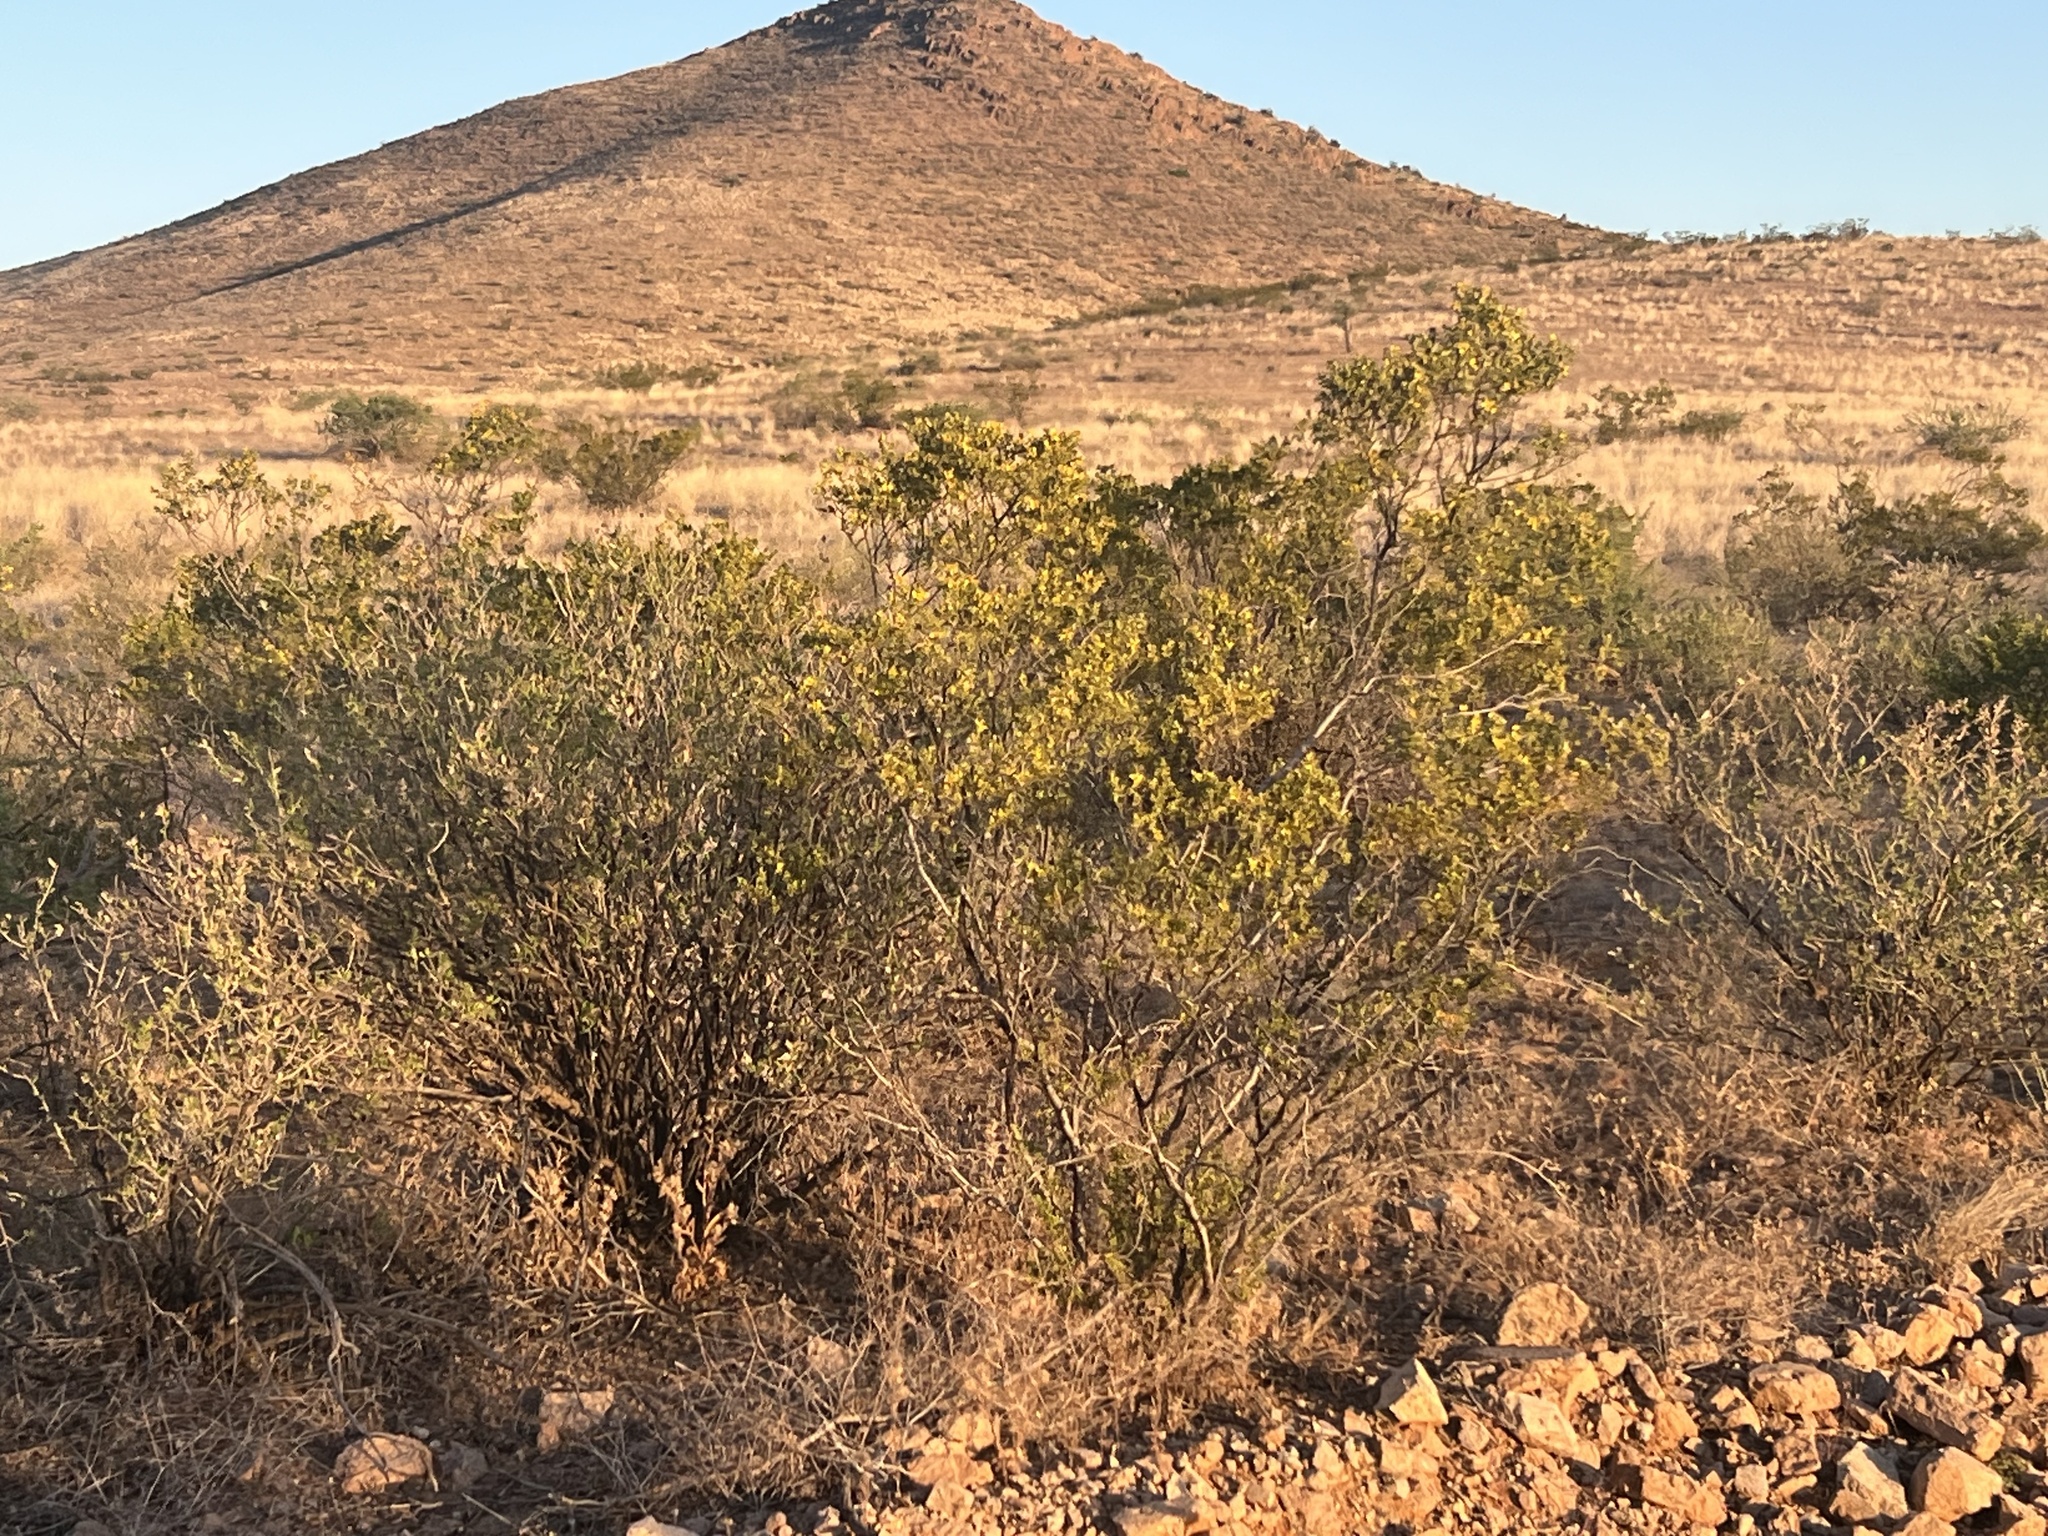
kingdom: Plantae
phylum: Tracheophyta
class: Magnoliopsida
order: Zygophyllales
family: Zygophyllaceae
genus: Larrea
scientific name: Larrea tridentata
